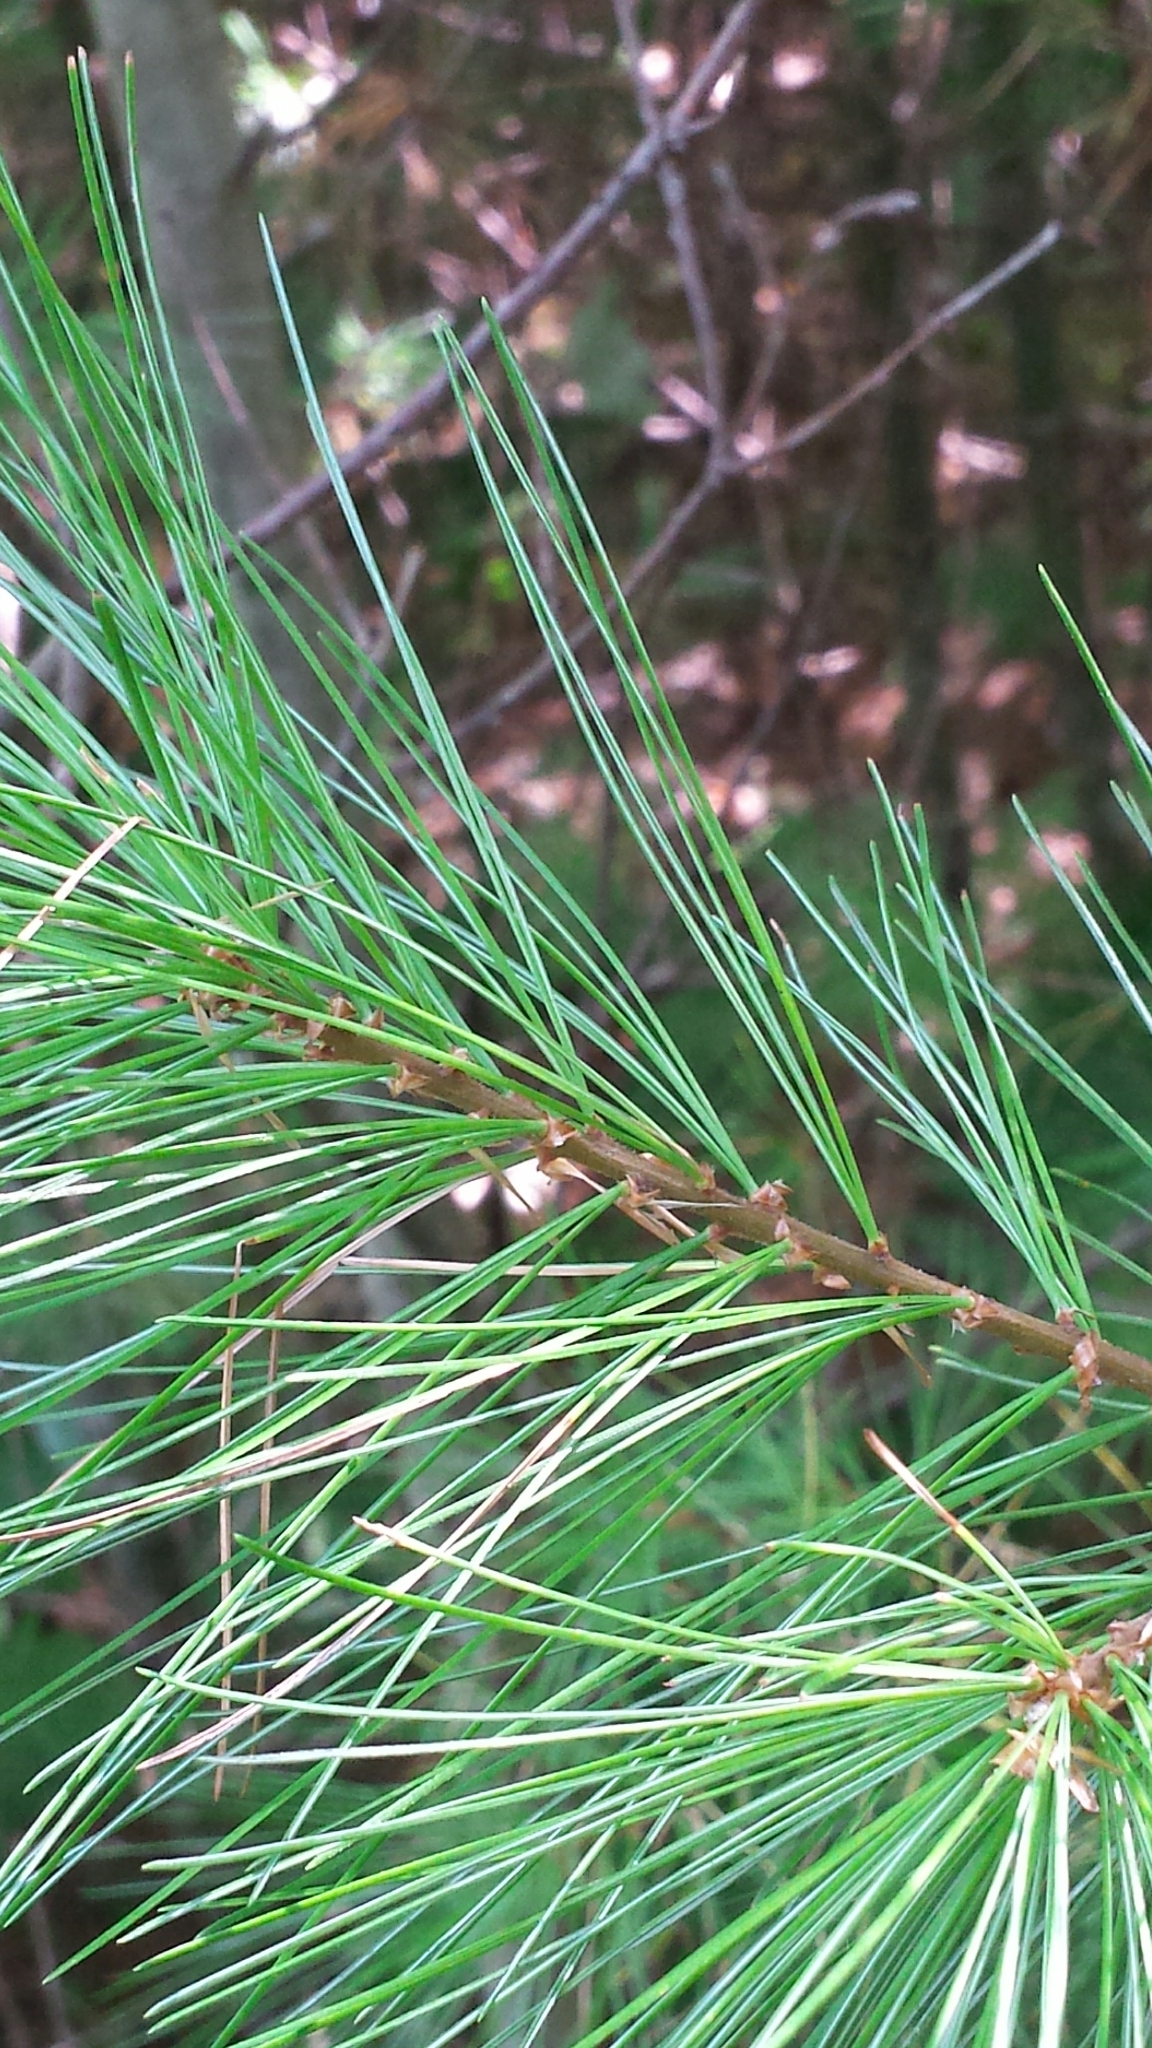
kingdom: Plantae
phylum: Tracheophyta
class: Pinopsida
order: Pinales
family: Pinaceae
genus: Pinus
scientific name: Pinus strobus
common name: Weymouth pine
